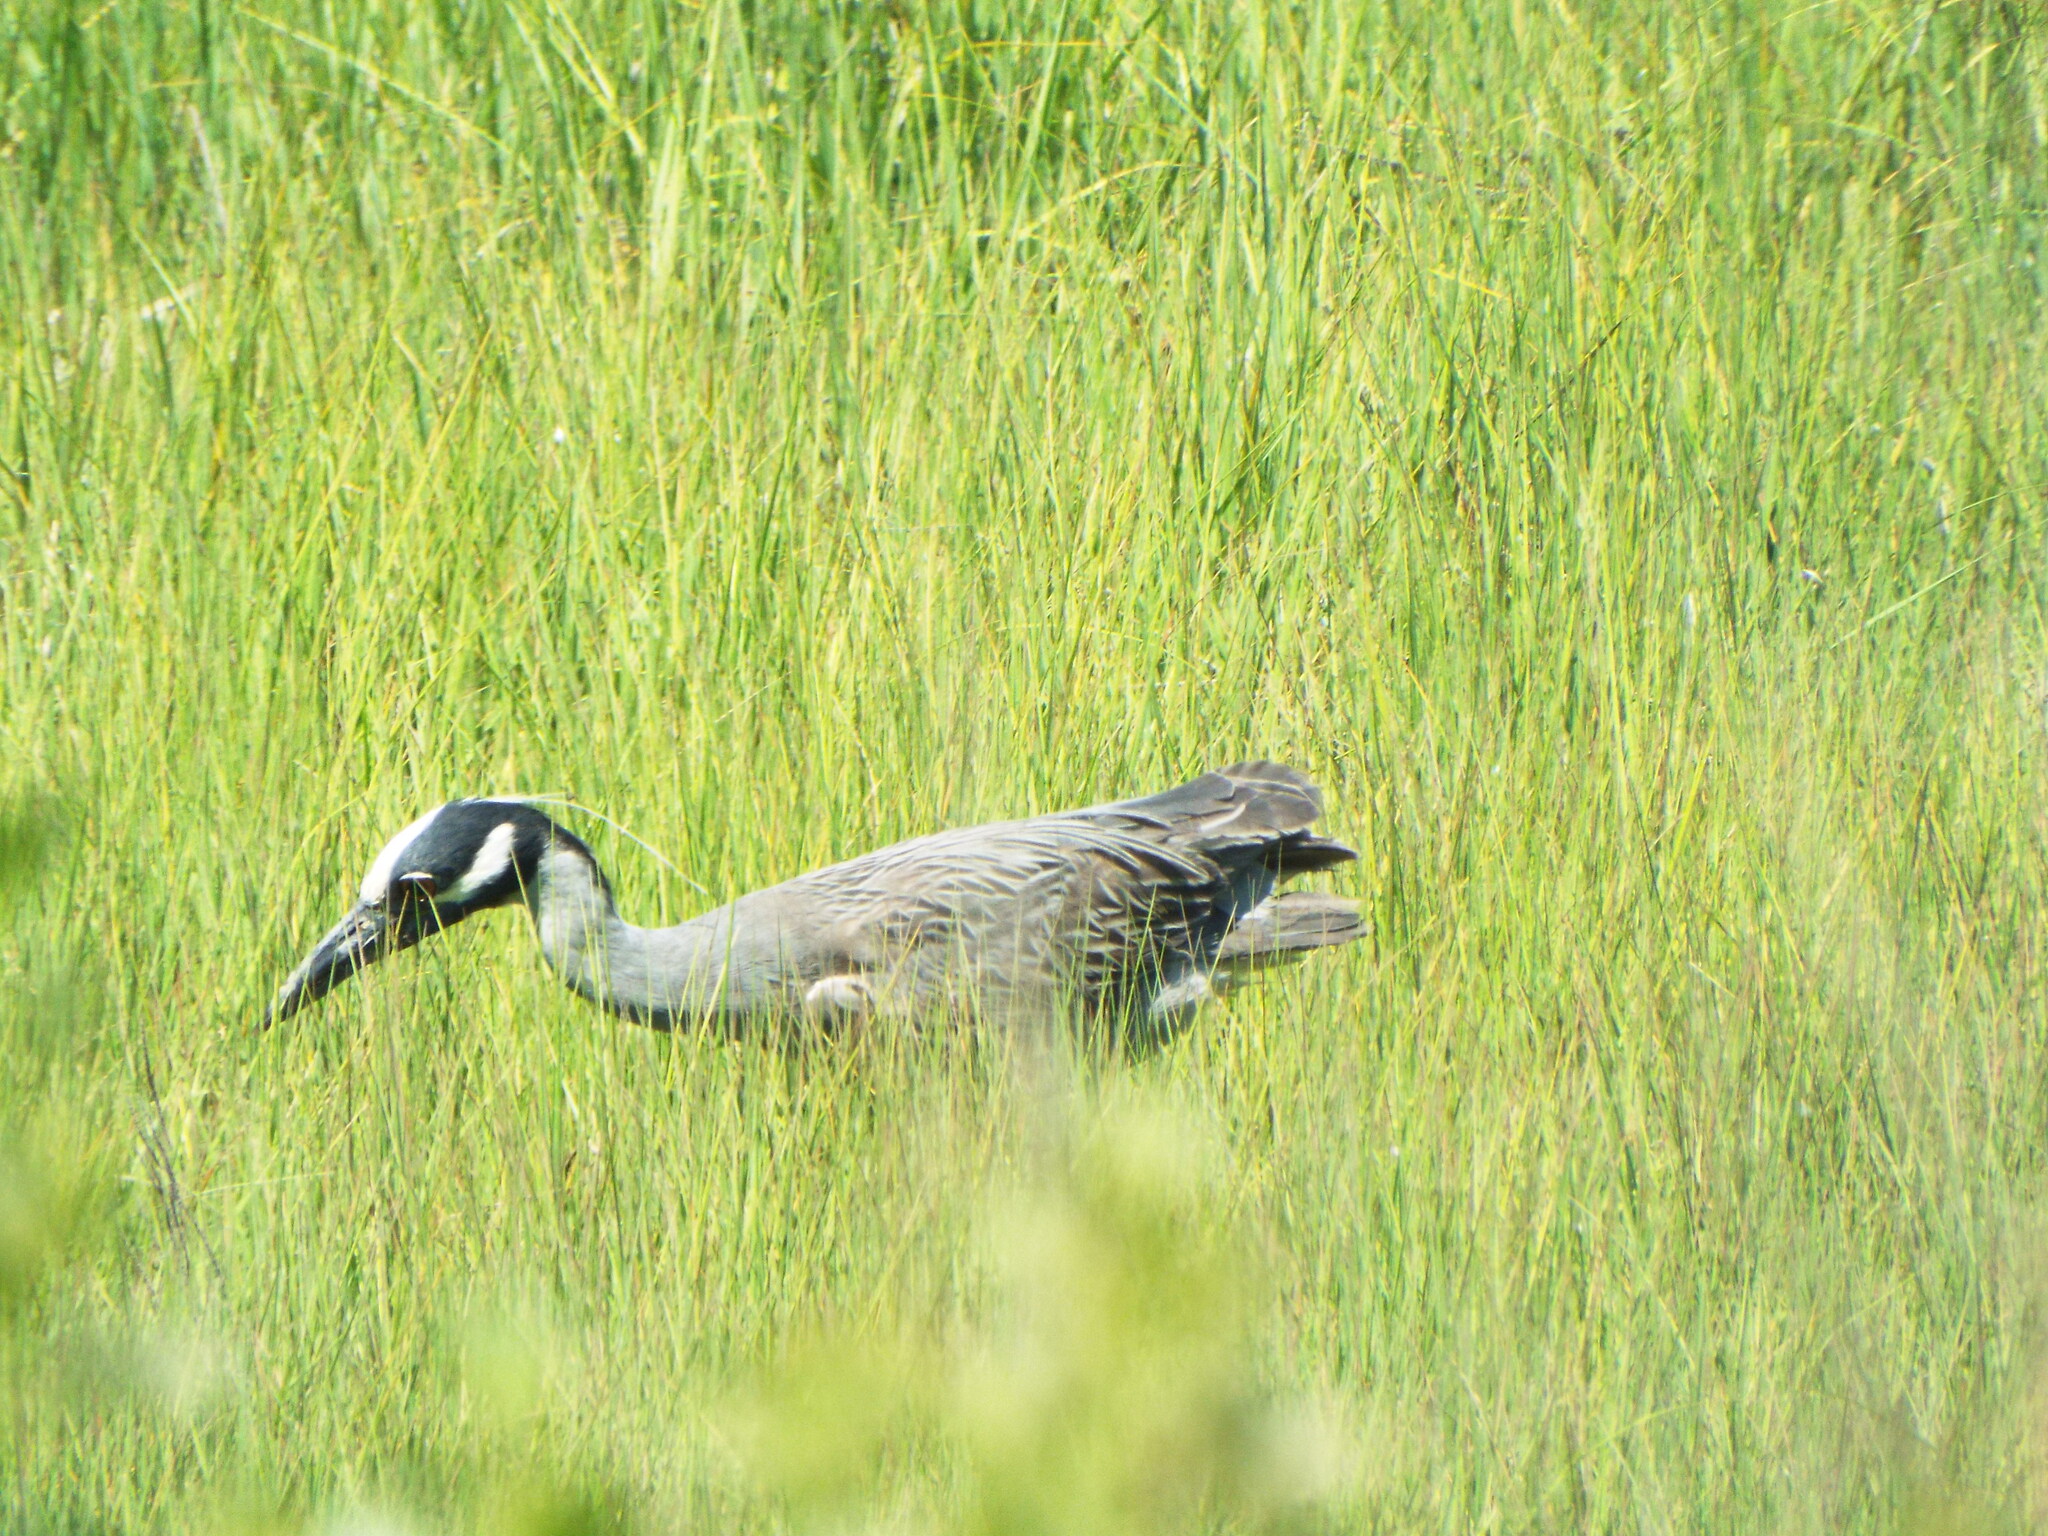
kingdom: Animalia
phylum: Chordata
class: Aves
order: Pelecaniformes
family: Ardeidae
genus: Nyctanassa
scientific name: Nyctanassa violacea
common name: Yellow-crowned night heron
